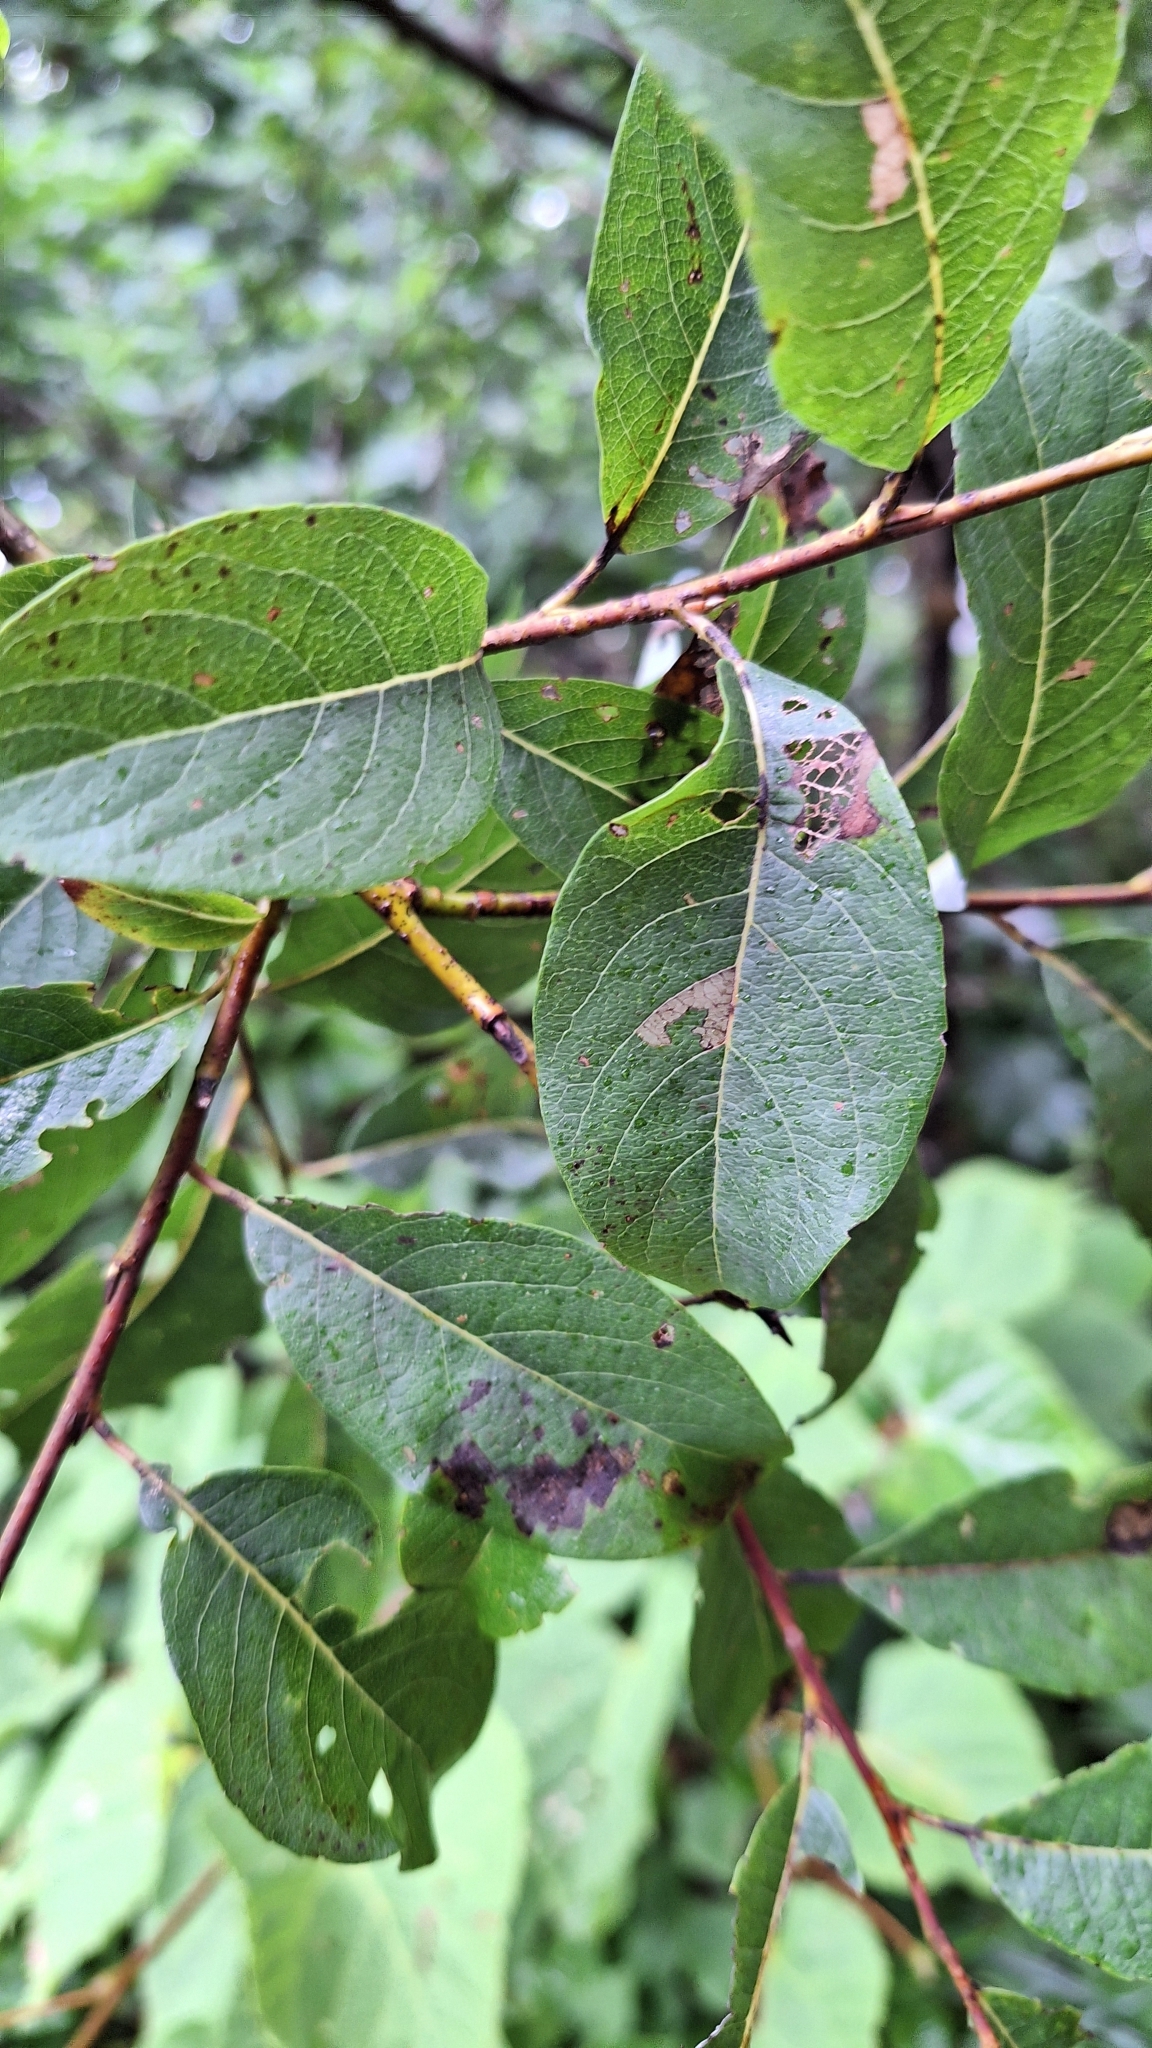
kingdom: Plantae
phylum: Tracheophyta
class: Magnoliopsida
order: Malpighiales
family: Salicaceae
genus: Salix
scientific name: Salix taraikensis
